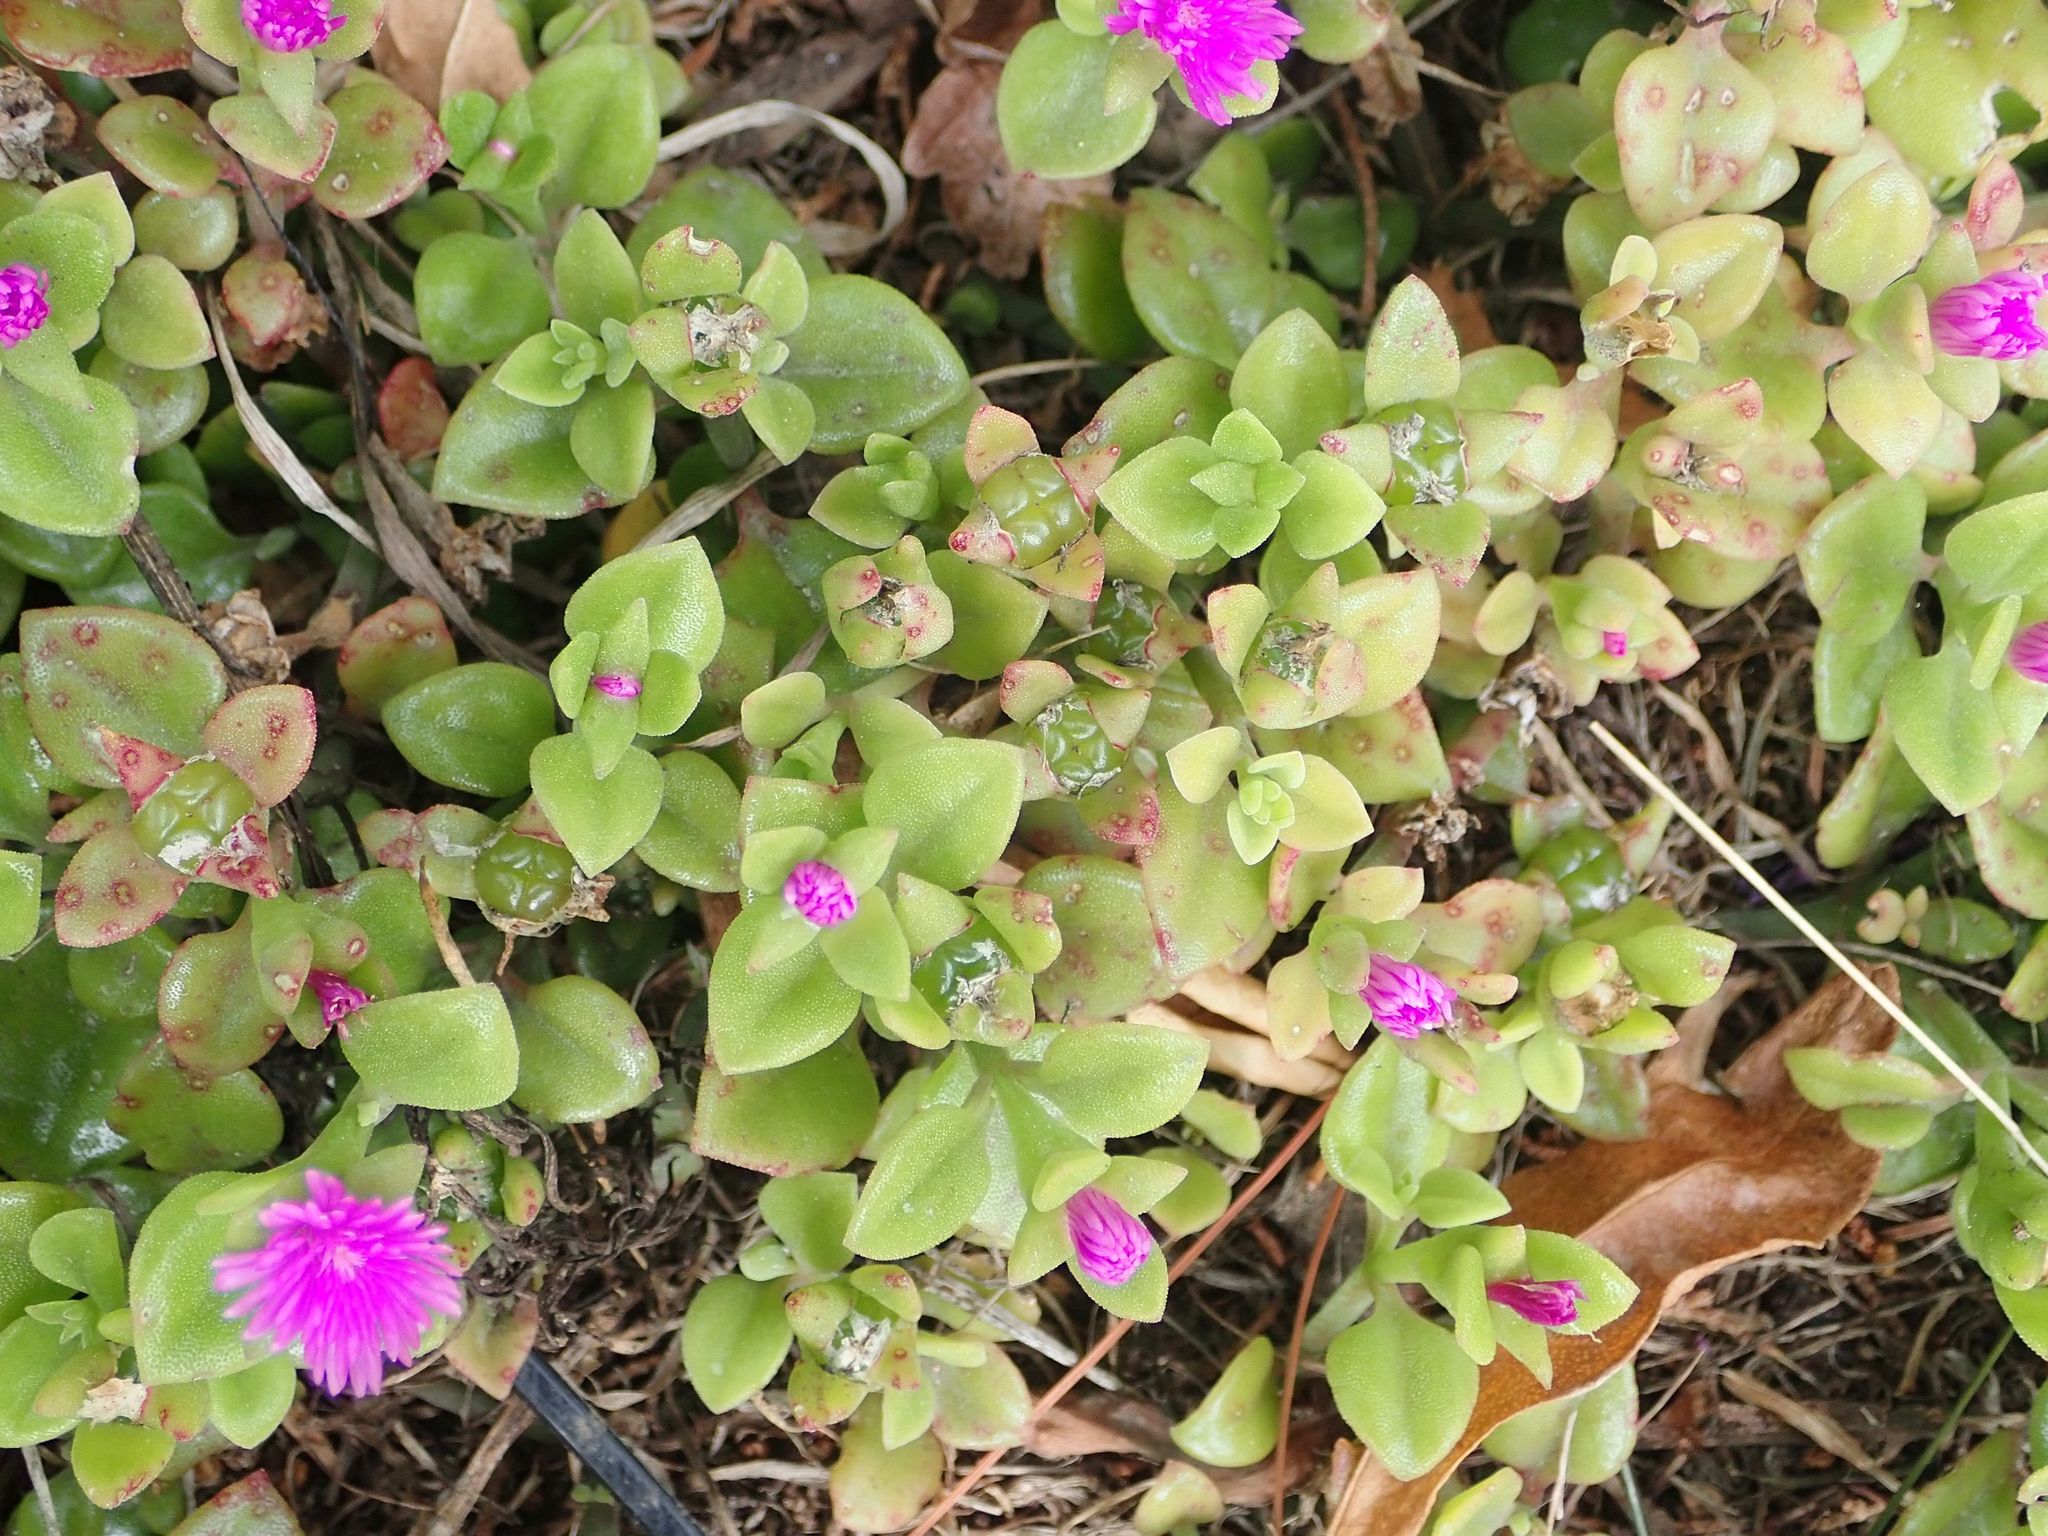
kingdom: Plantae
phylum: Tracheophyta
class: Magnoliopsida
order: Caryophyllales
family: Aizoaceae
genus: Mesembryanthemum
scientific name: Mesembryanthemum cordifolium
